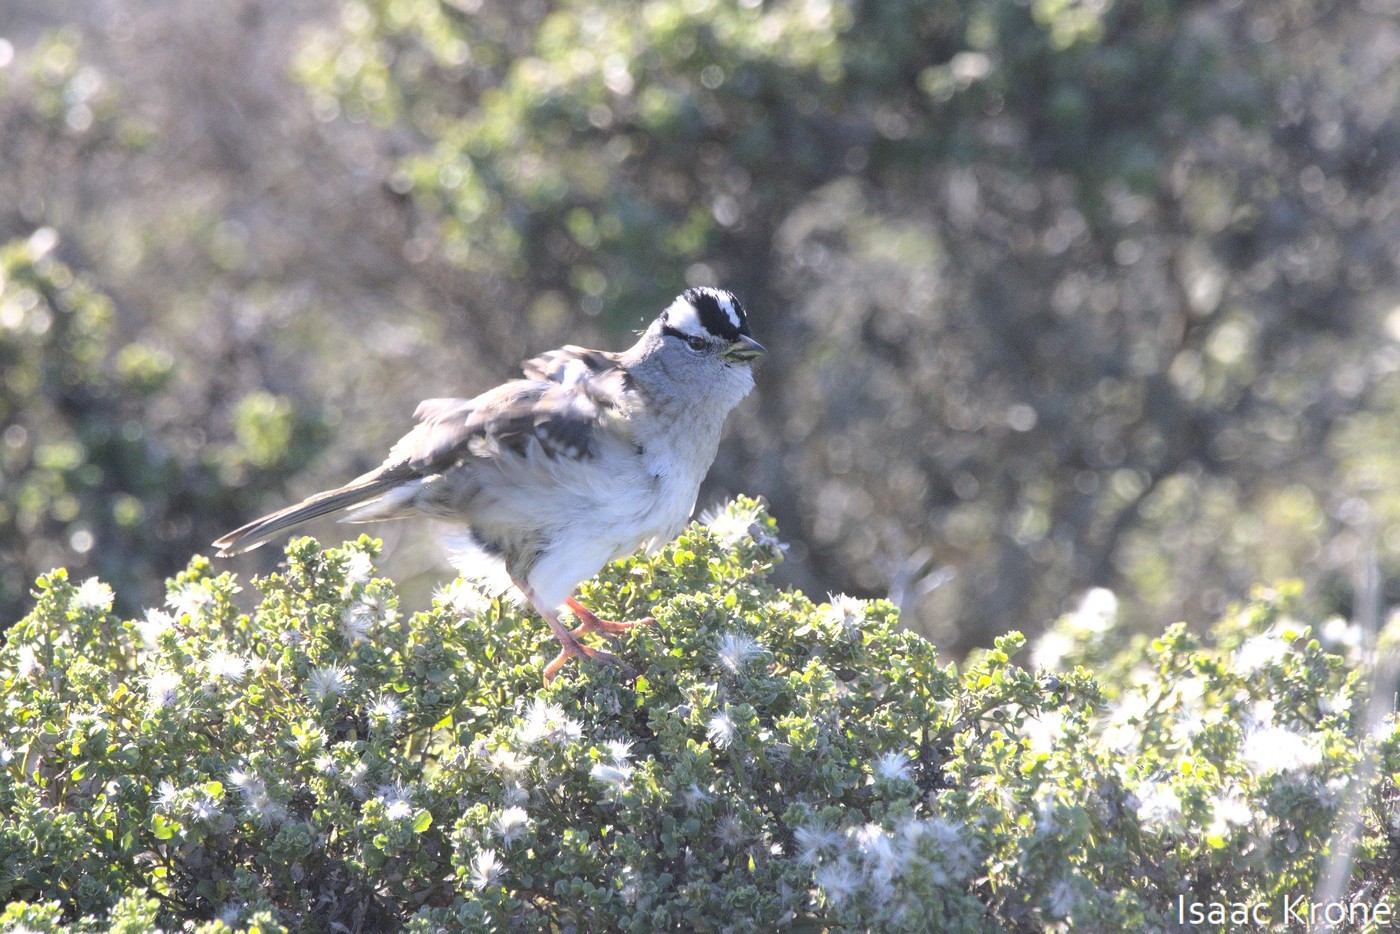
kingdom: Animalia
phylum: Chordata
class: Aves
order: Passeriformes
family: Passerellidae
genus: Zonotrichia
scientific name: Zonotrichia leucophrys
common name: White-crowned sparrow
